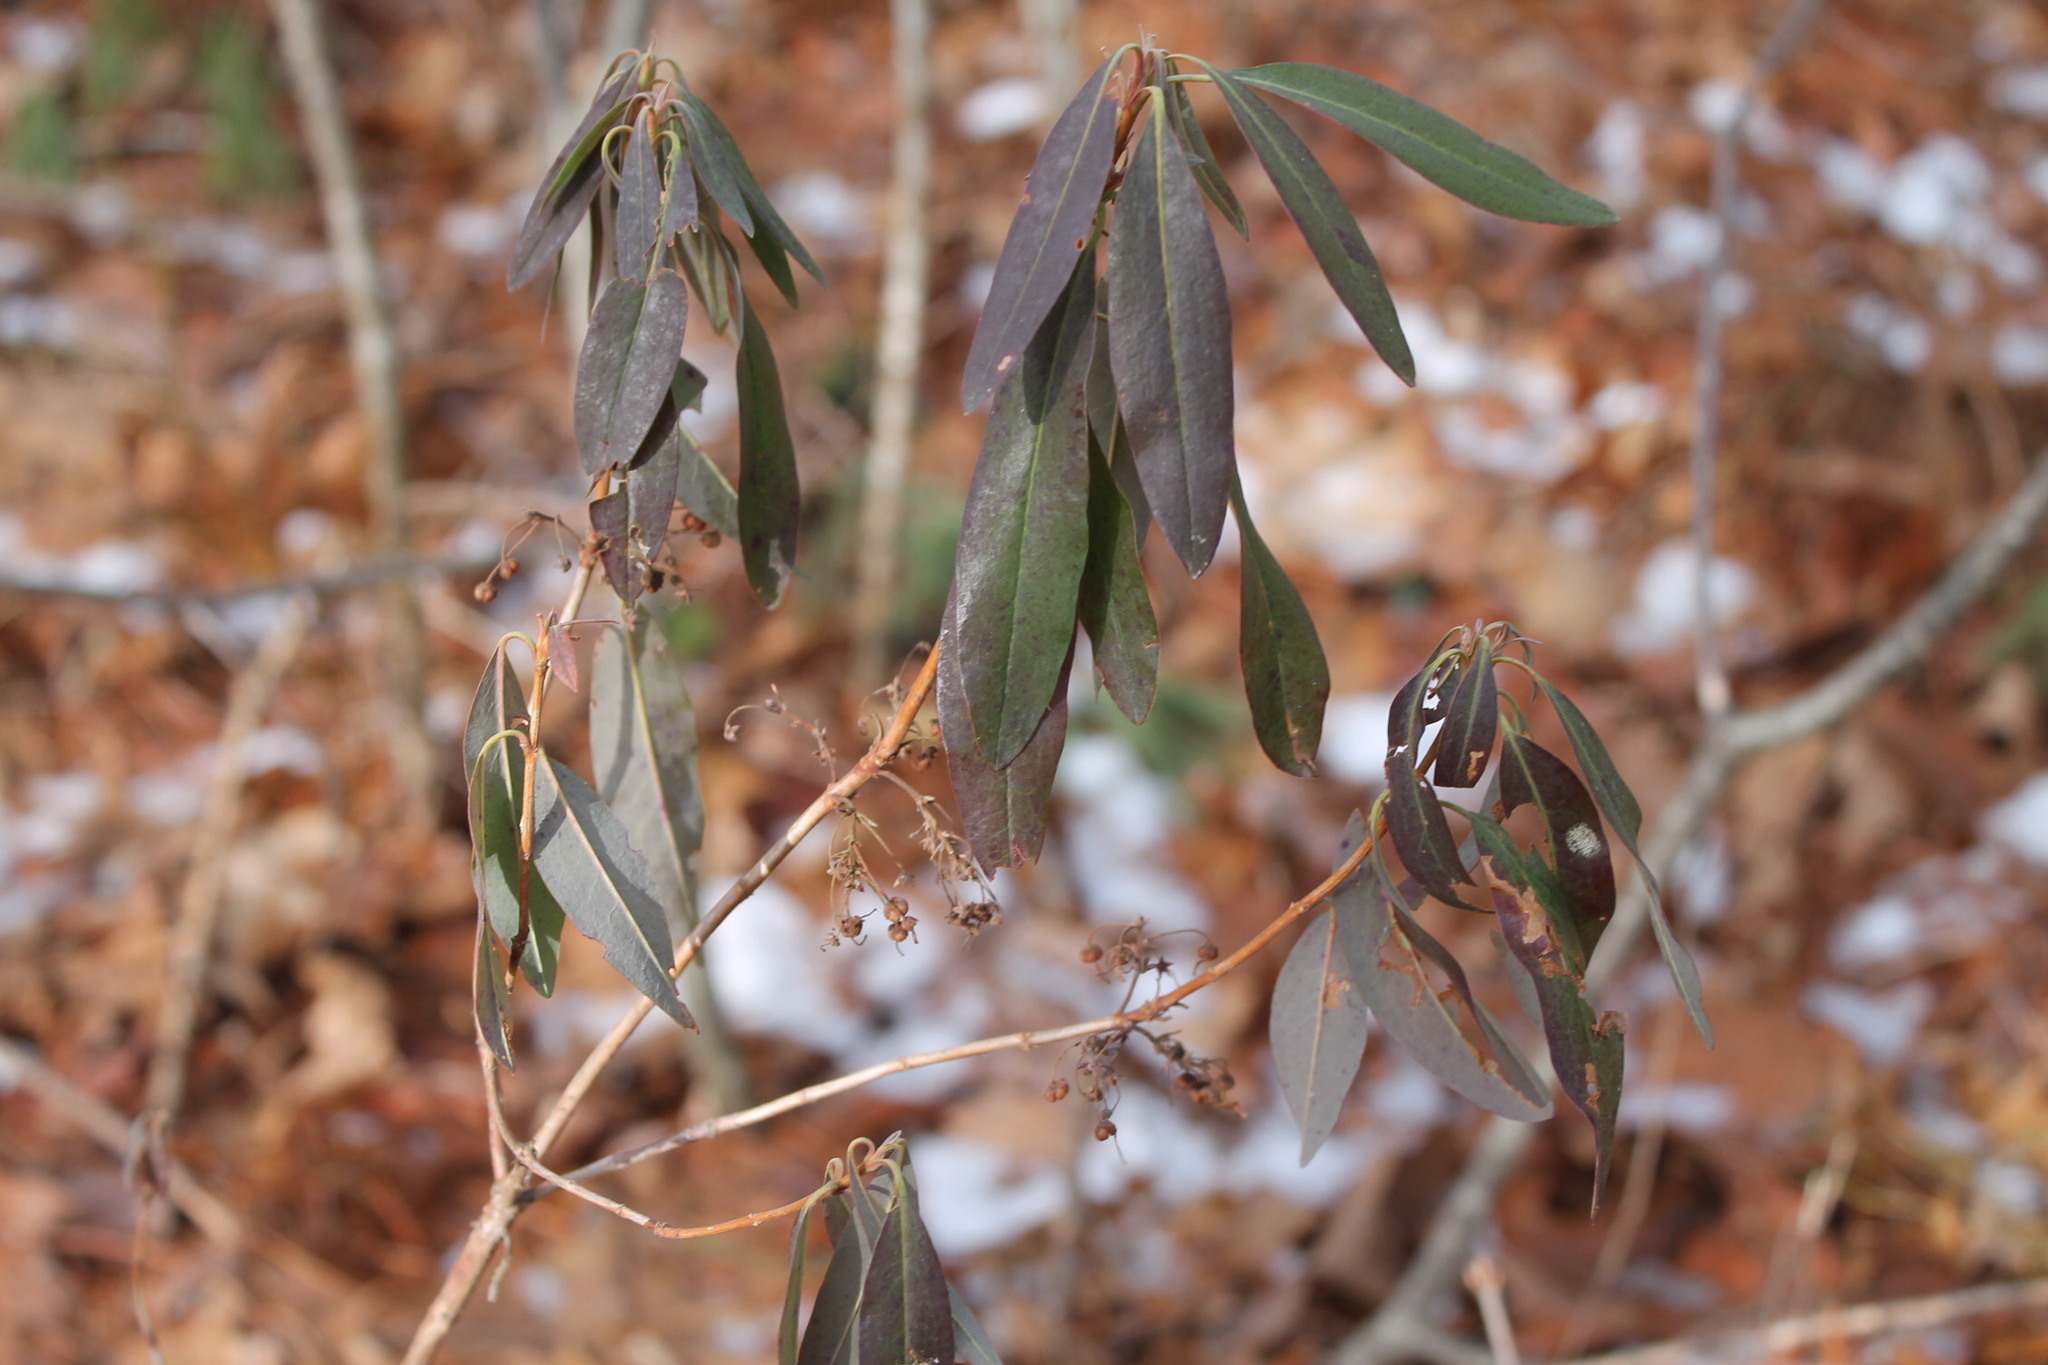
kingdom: Plantae
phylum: Tracheophyta
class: Magnoliopsida
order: Ericales
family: Ericaceae
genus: Kalmia
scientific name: Kalmia angustifolia
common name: Sheep-laurel
